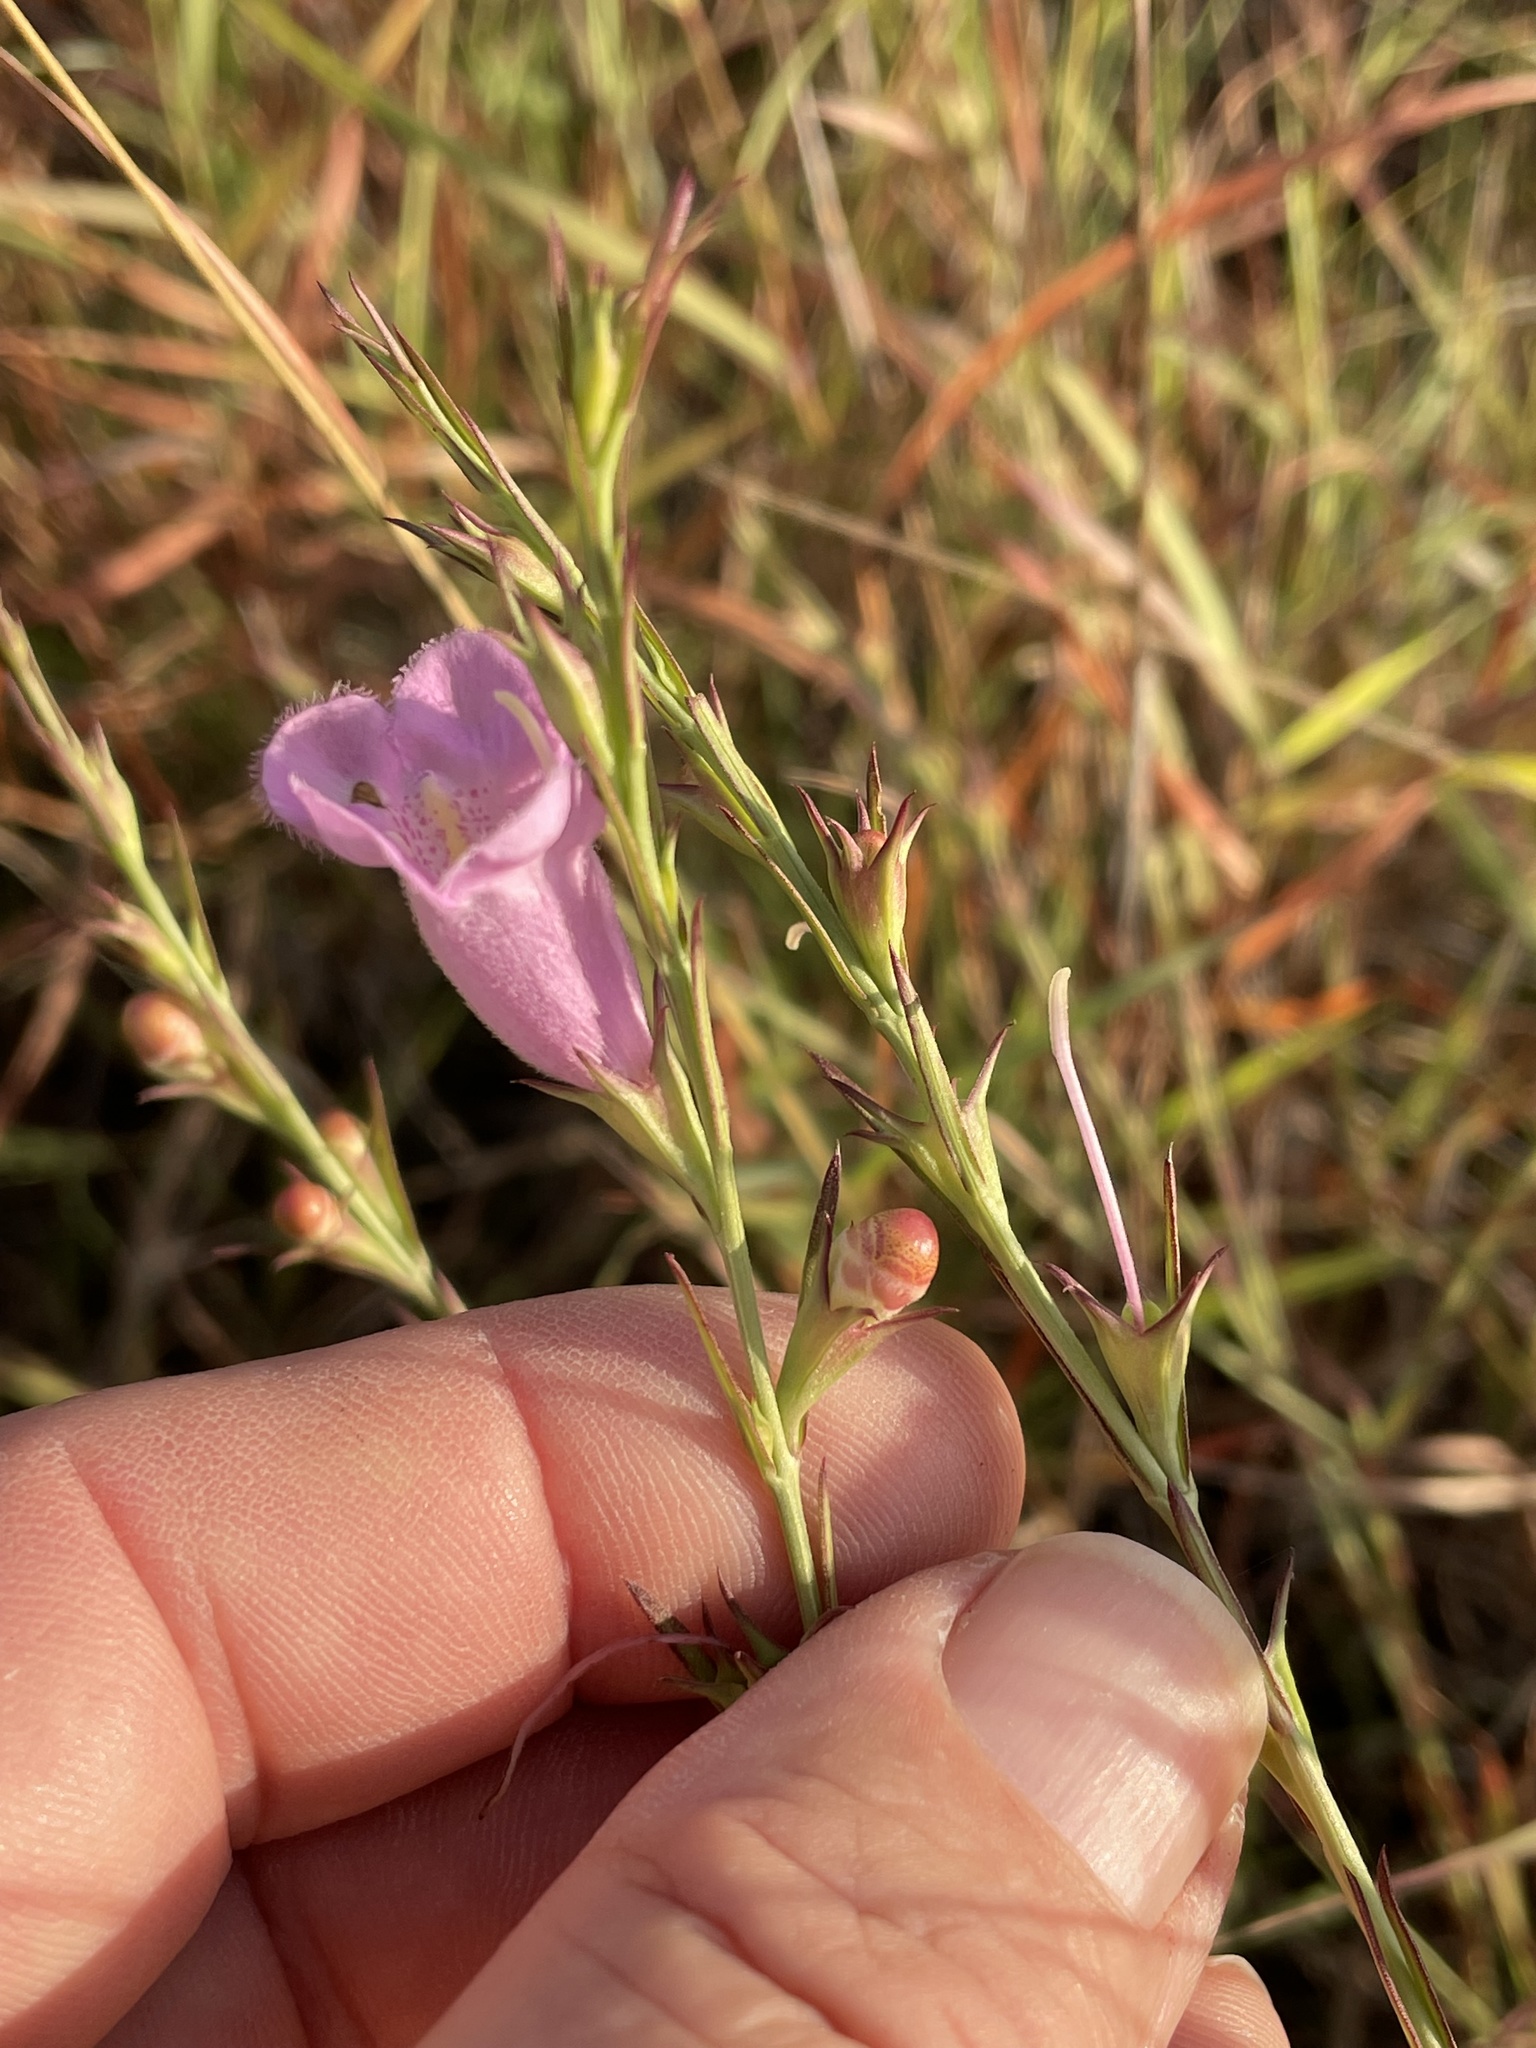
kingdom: Plantae
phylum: Tracheophyta
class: Magnoliopsida
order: Lamiales
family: Orobanchaceae
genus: Agalinis
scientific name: Agalinis heterophylla
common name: Prairie agalinis
